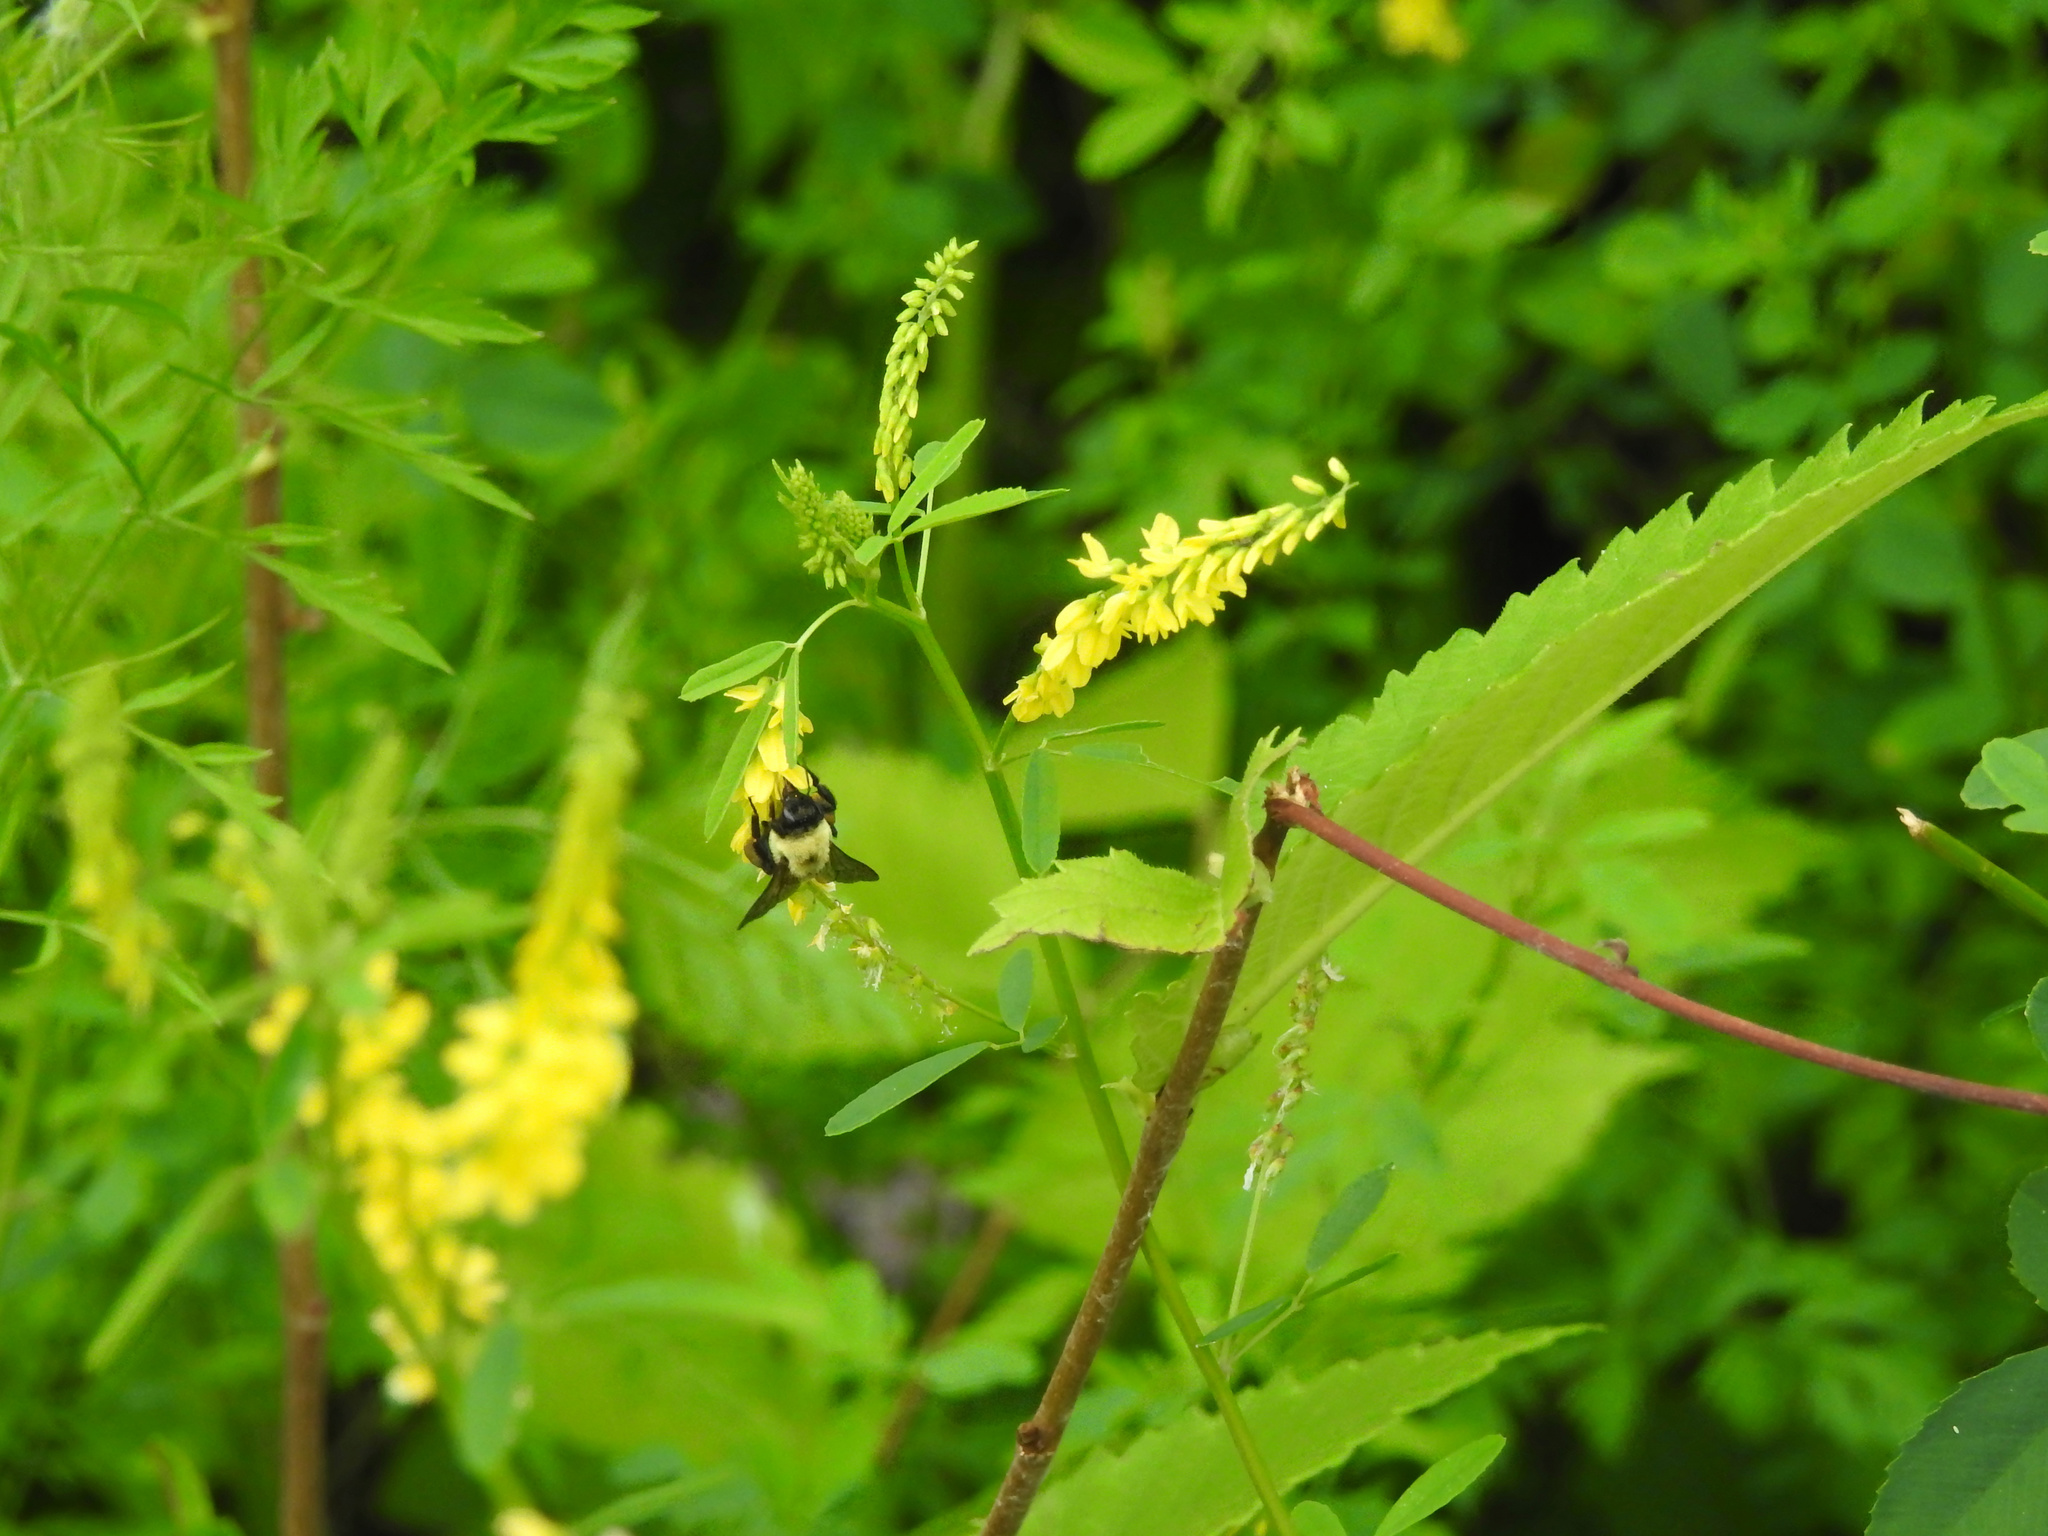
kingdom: Plantae
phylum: Tracheophyta
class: Magnoliopsida
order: Fabales
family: Fabaceae
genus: Melilotus
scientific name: Melilotus officinalis
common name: Sweetclover
